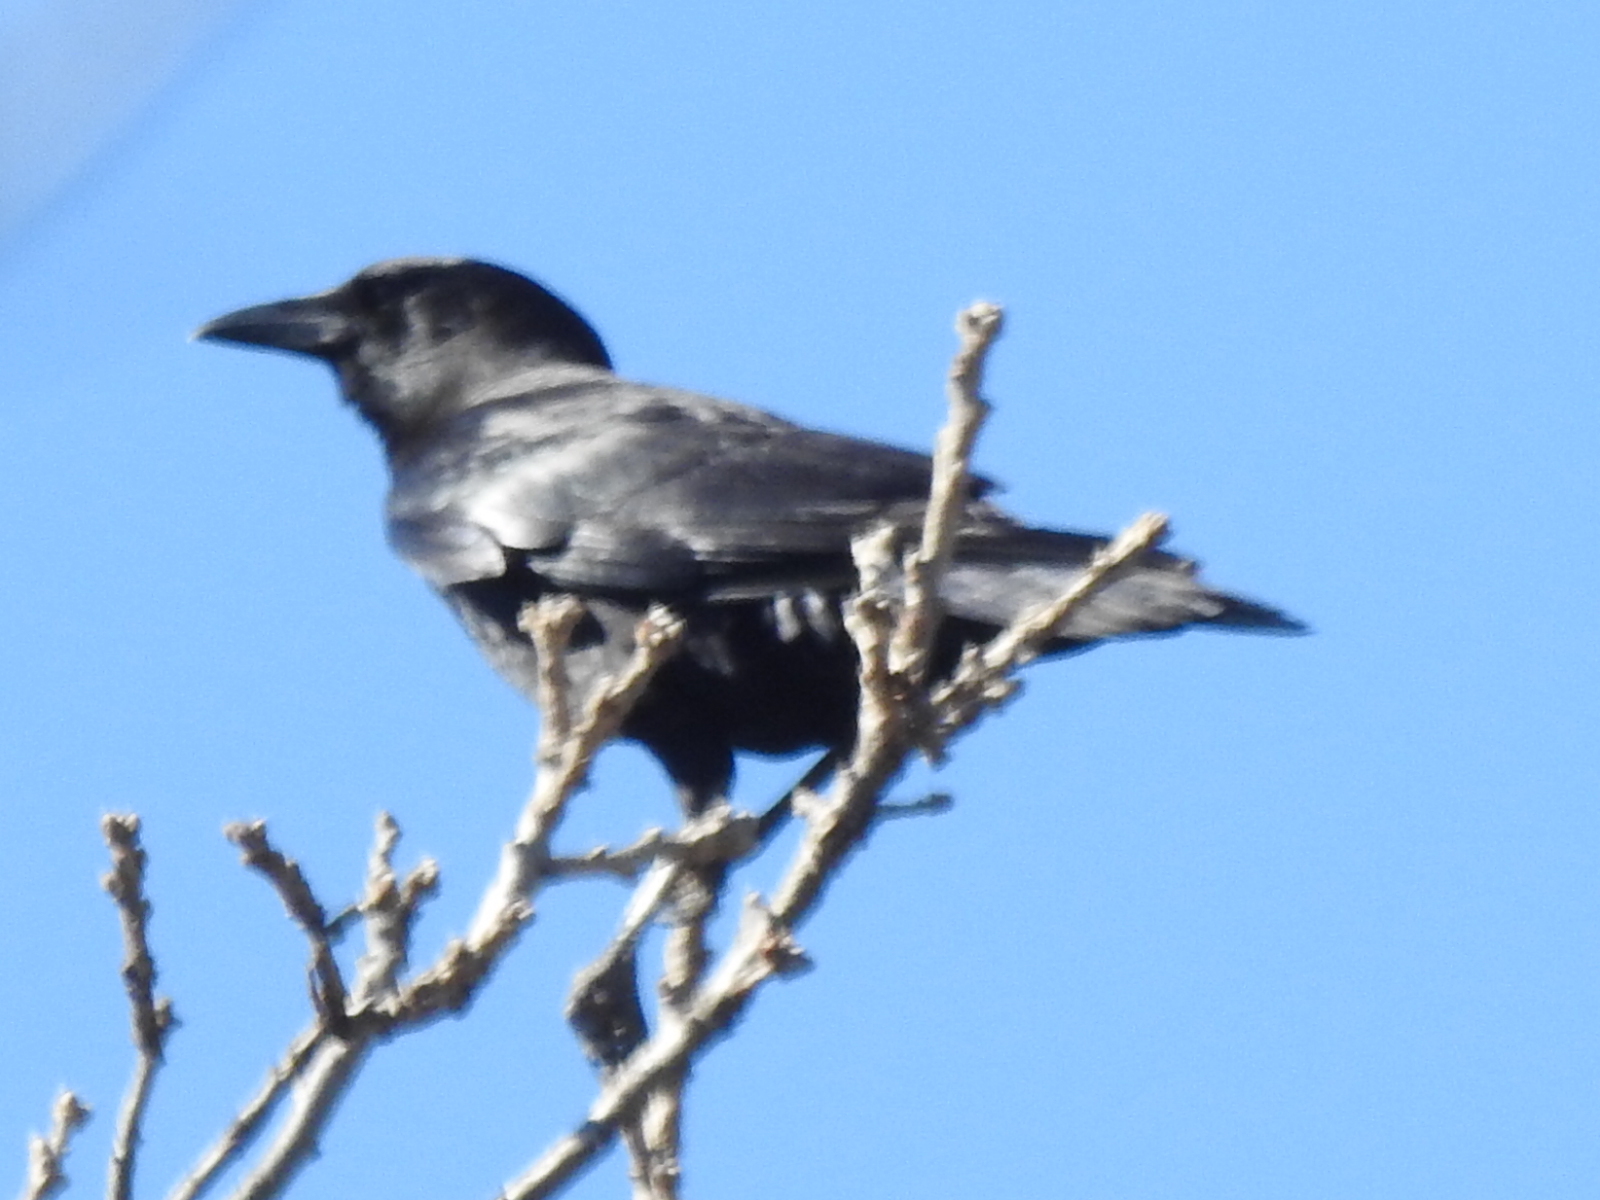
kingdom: Animalia
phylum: Chordata
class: Aves
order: Passeriformes
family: Corvidae
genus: Corvus
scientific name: Corvus brachyrhynchos
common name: American crow
